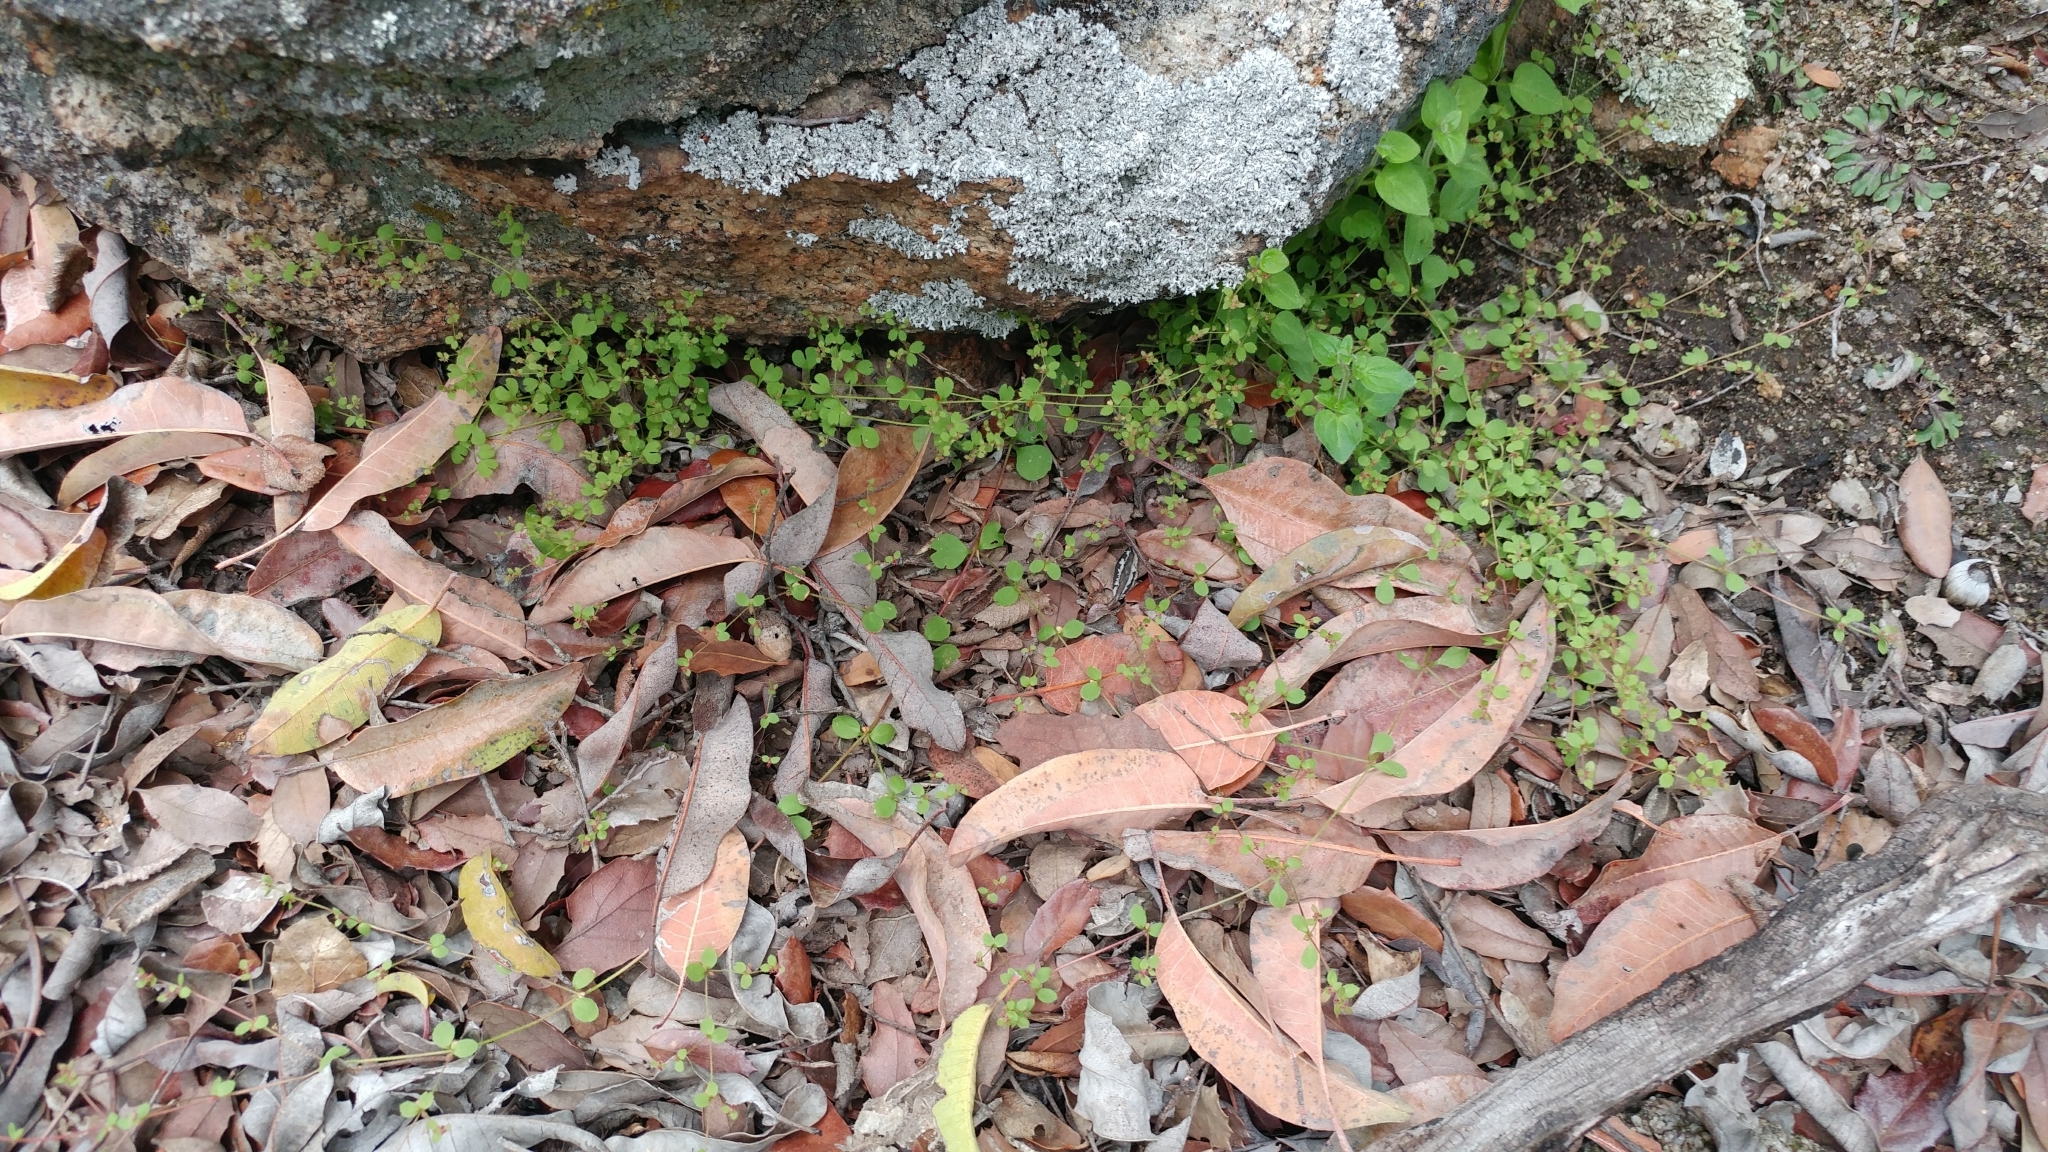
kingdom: Plantae
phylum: Tracheophyta
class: Magnoliopsida
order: Caryophyllales
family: Polygonaceae
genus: Pterostegia
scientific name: Pterostegia drymarioides
